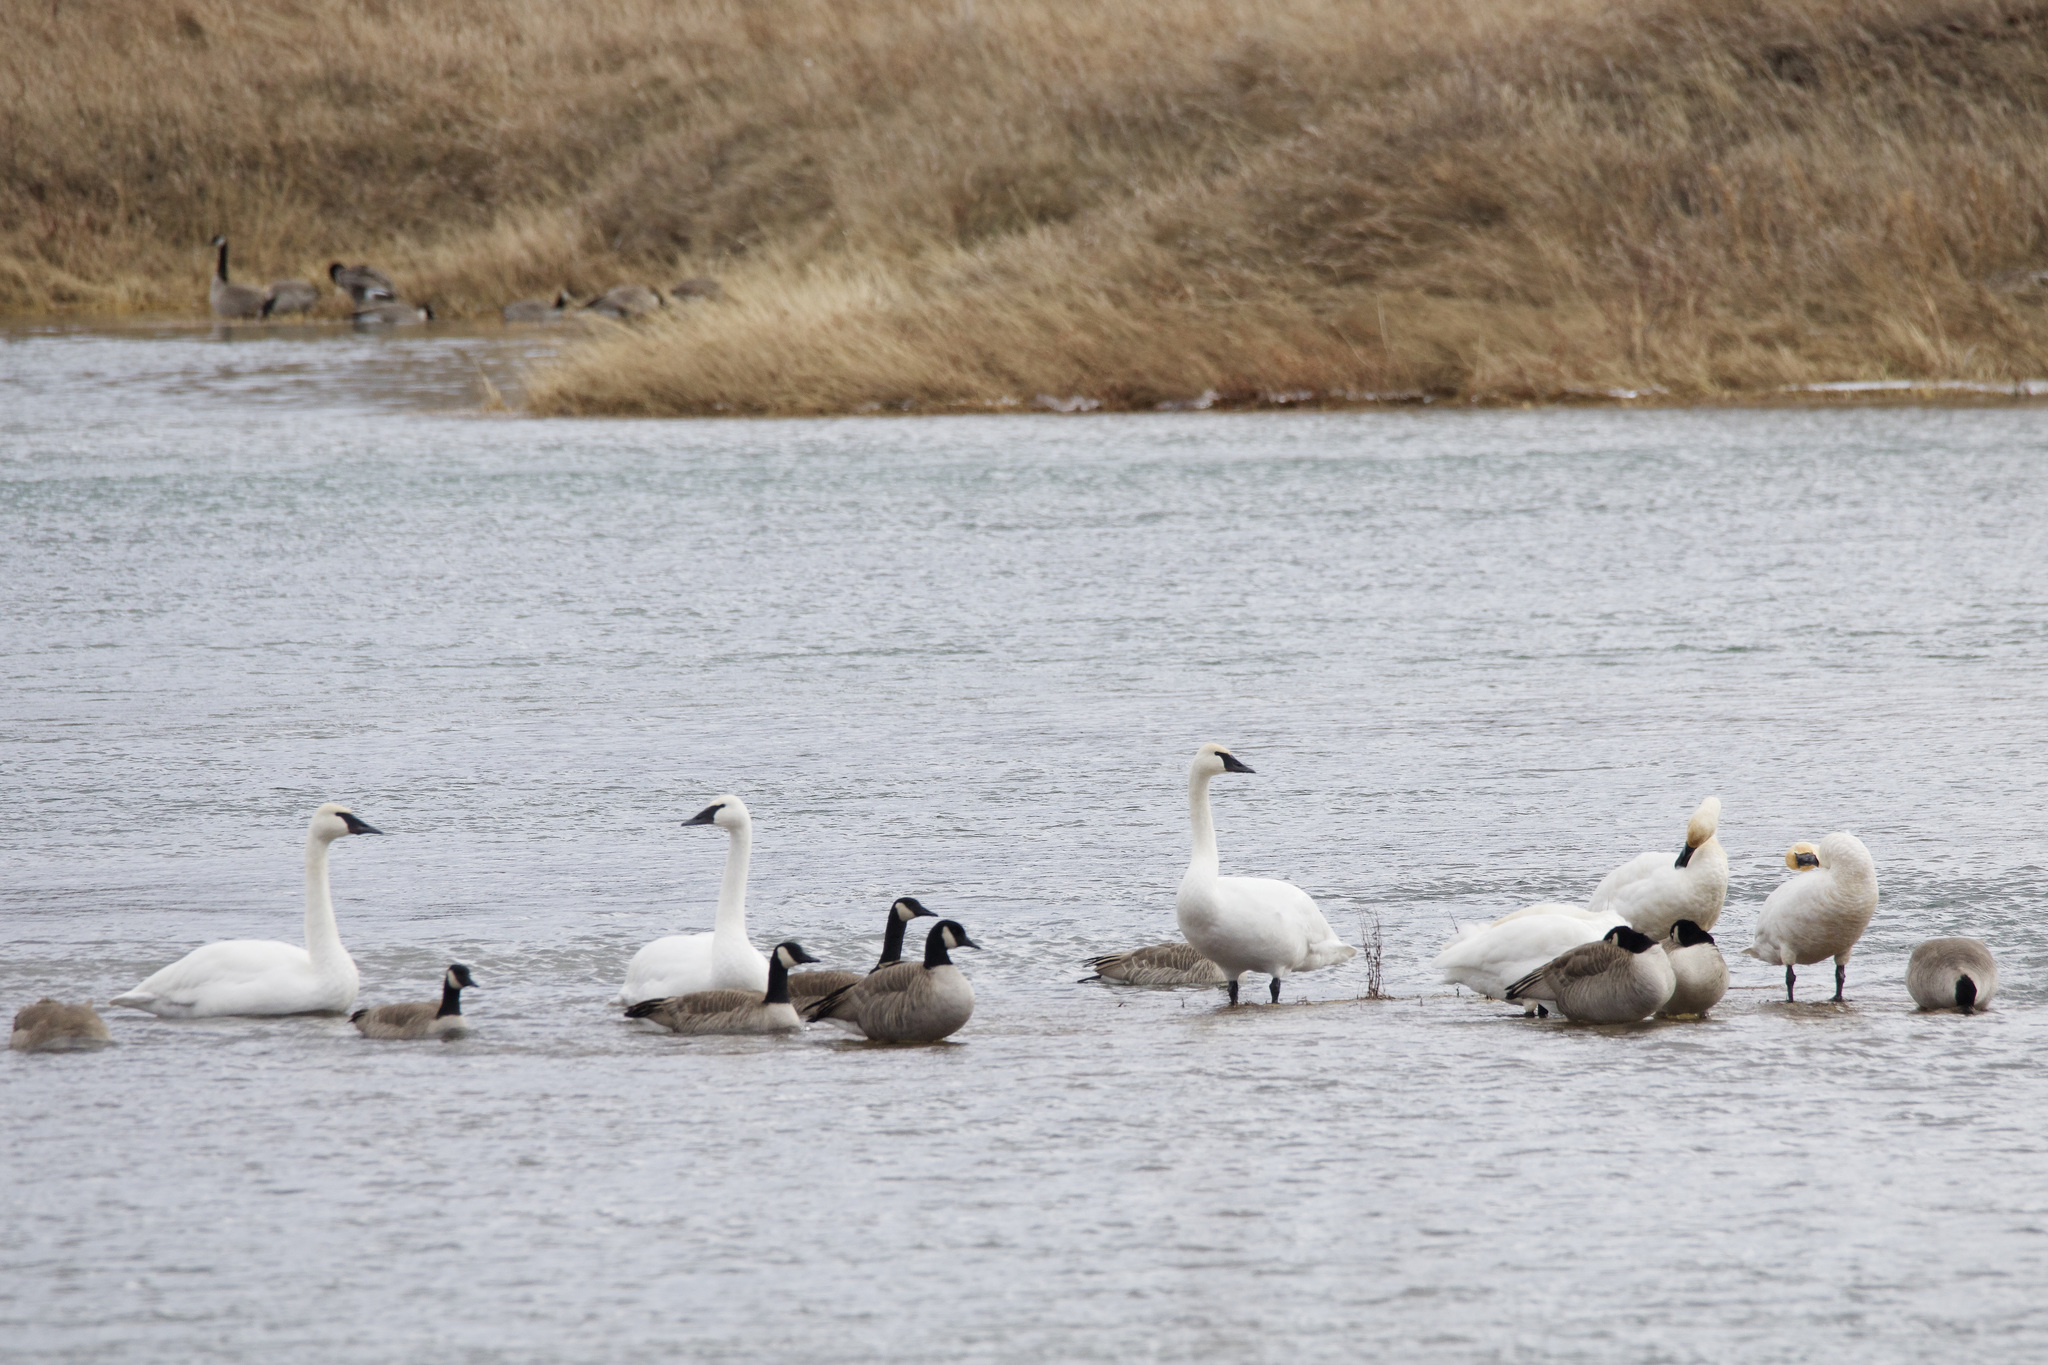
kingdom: Animalia
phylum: Chordata
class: Aves
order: Anseriformes
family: Anatidae
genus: Cygnus
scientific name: Cygnus
